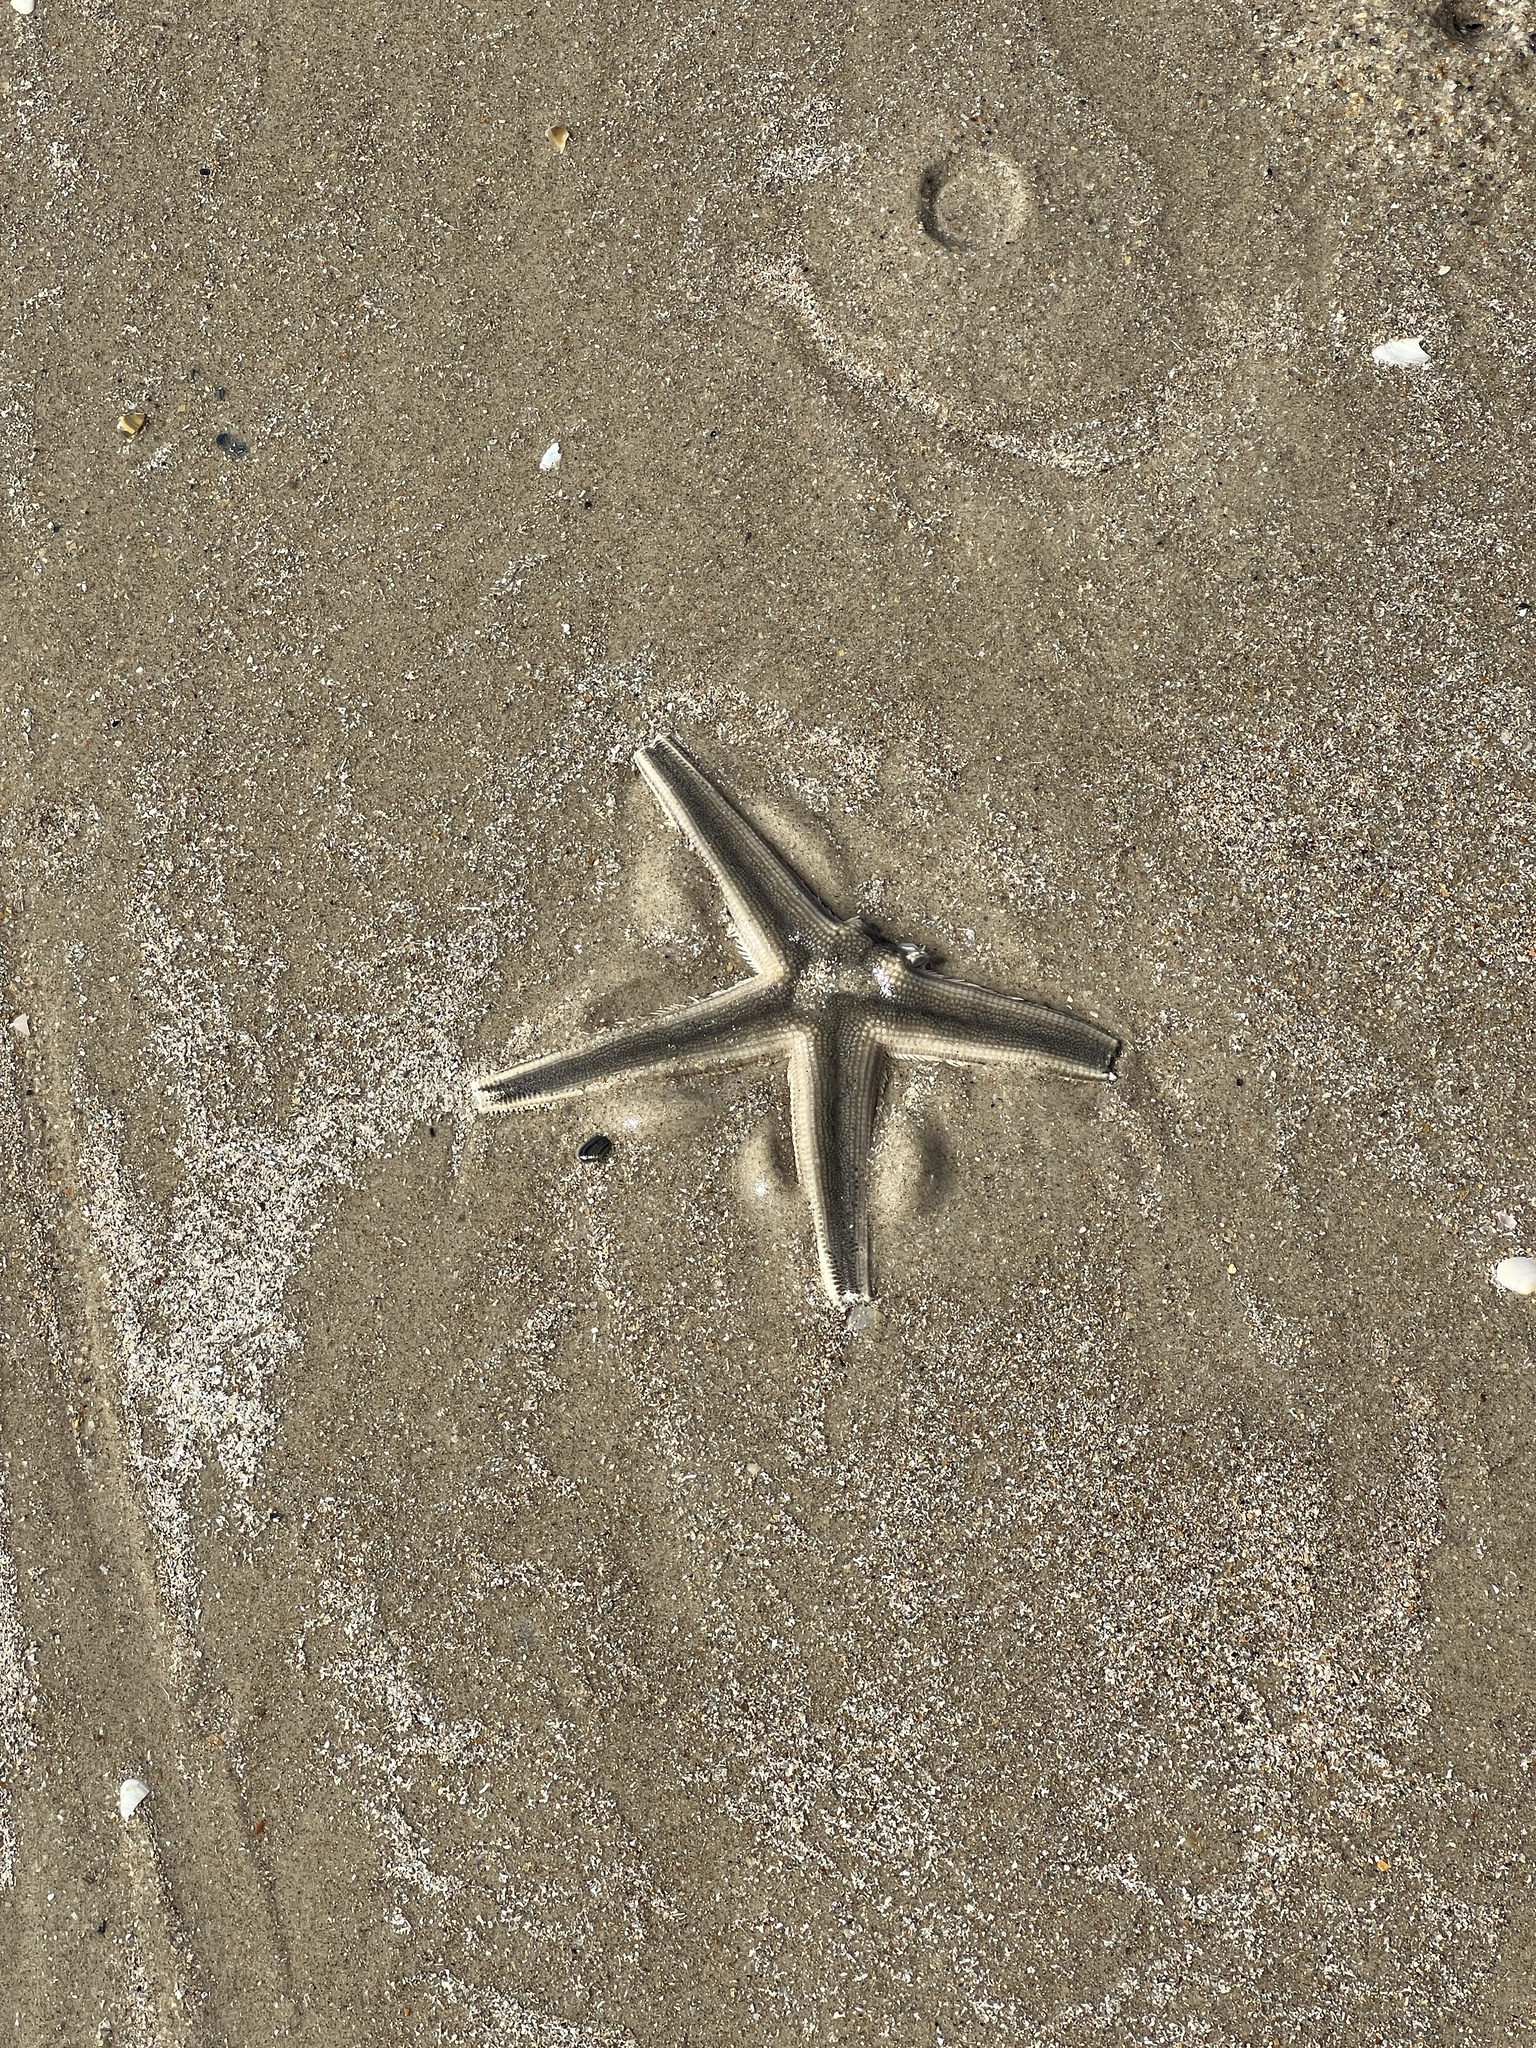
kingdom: Animalia
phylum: Echinodermata
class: Asteroidea
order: Paxillosida
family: Luidiidae
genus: Luidia
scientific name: Luidia clathrata
